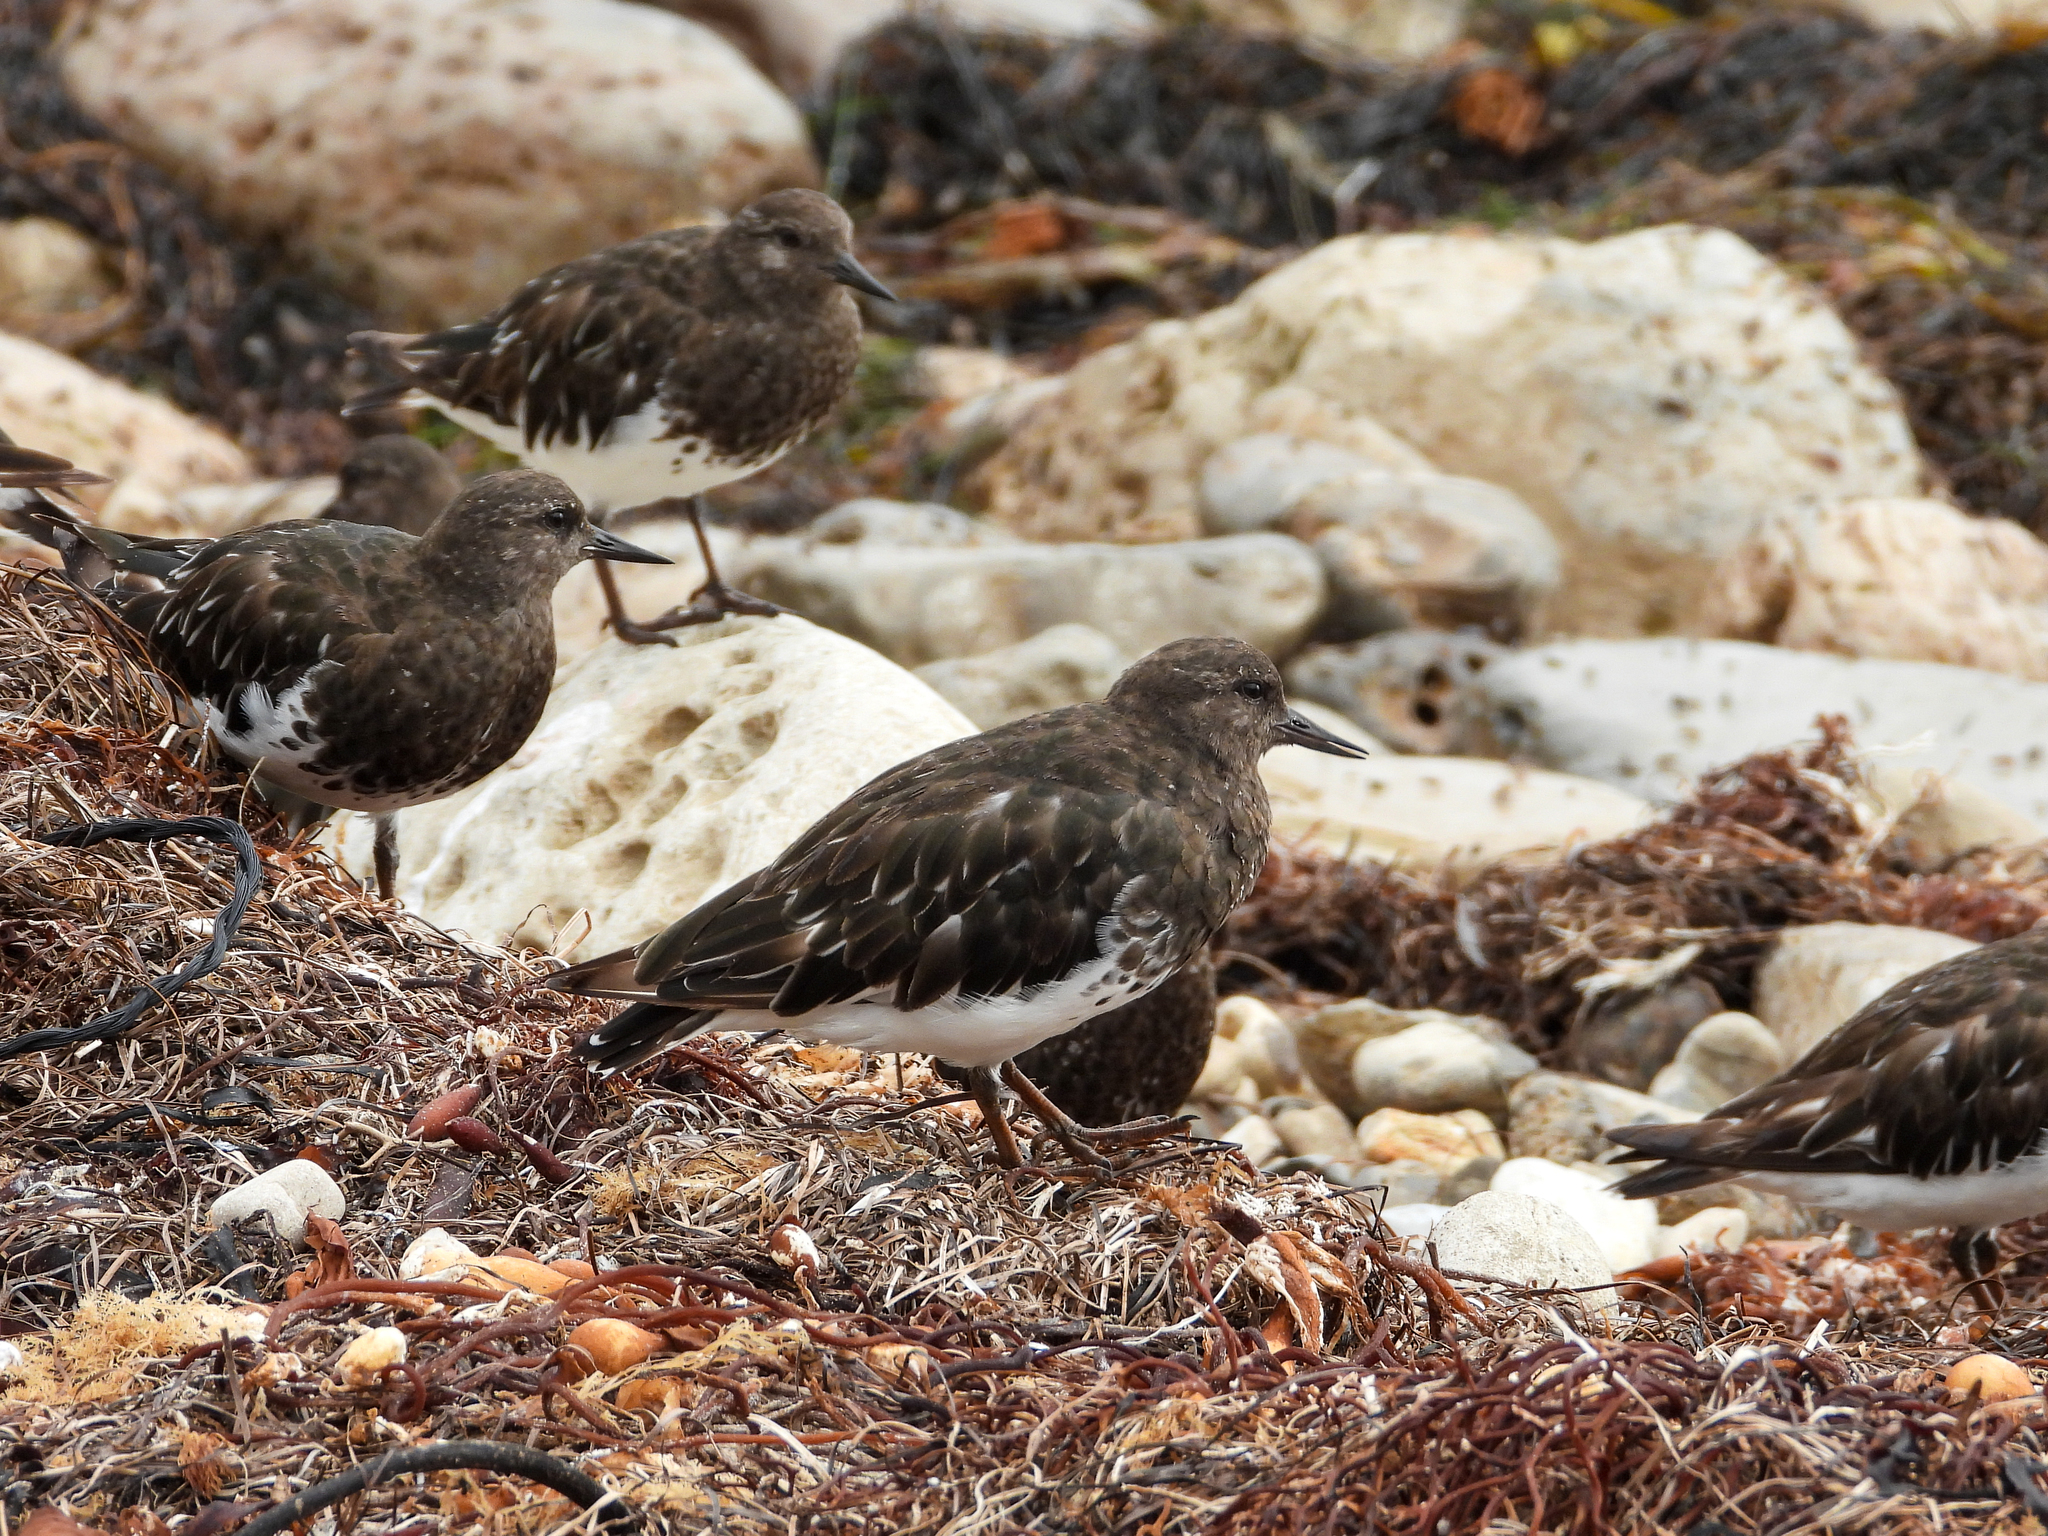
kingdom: Animalia
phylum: Chordata
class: Aves
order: Charadriiformes
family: Scolopacidae
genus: Arenaria
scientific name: Arenaria melanocephala
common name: Black turnstone
